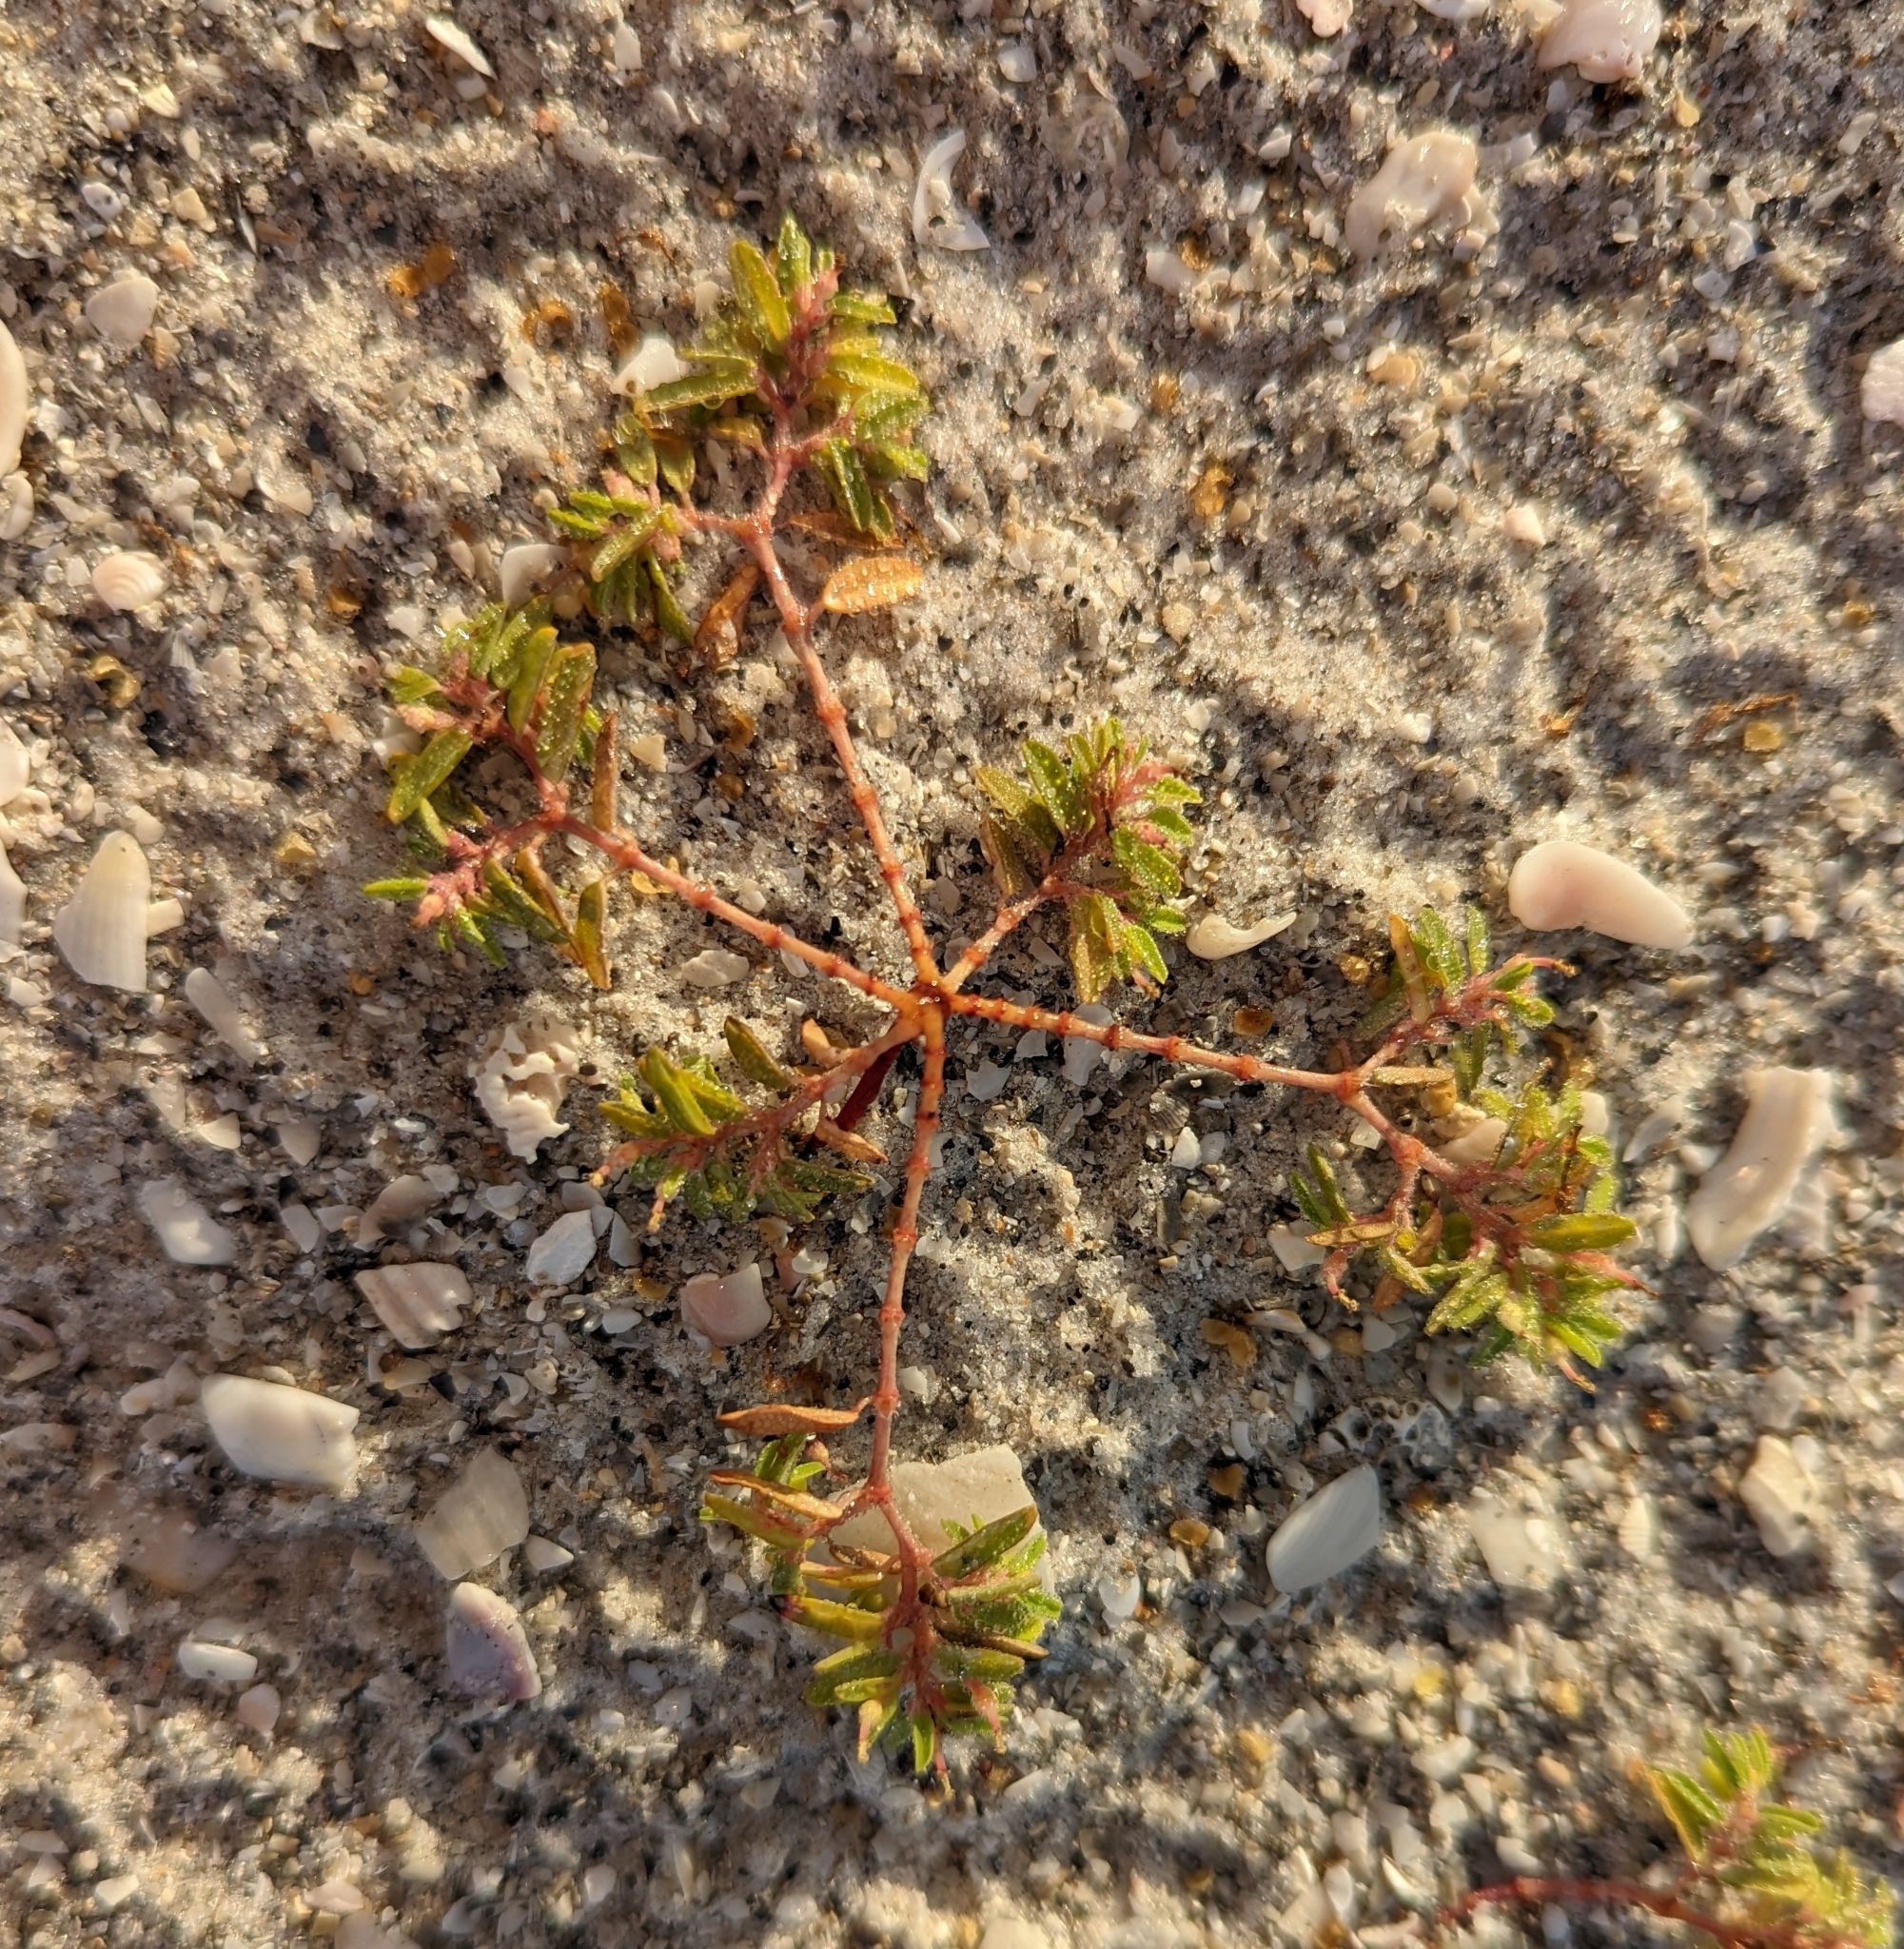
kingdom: Plantae
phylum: Tracheophyta
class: Magnoliopsida
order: Malpighiales
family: Euphorbiaceae
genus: Euphorbia
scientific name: Euphorbia bombensis
